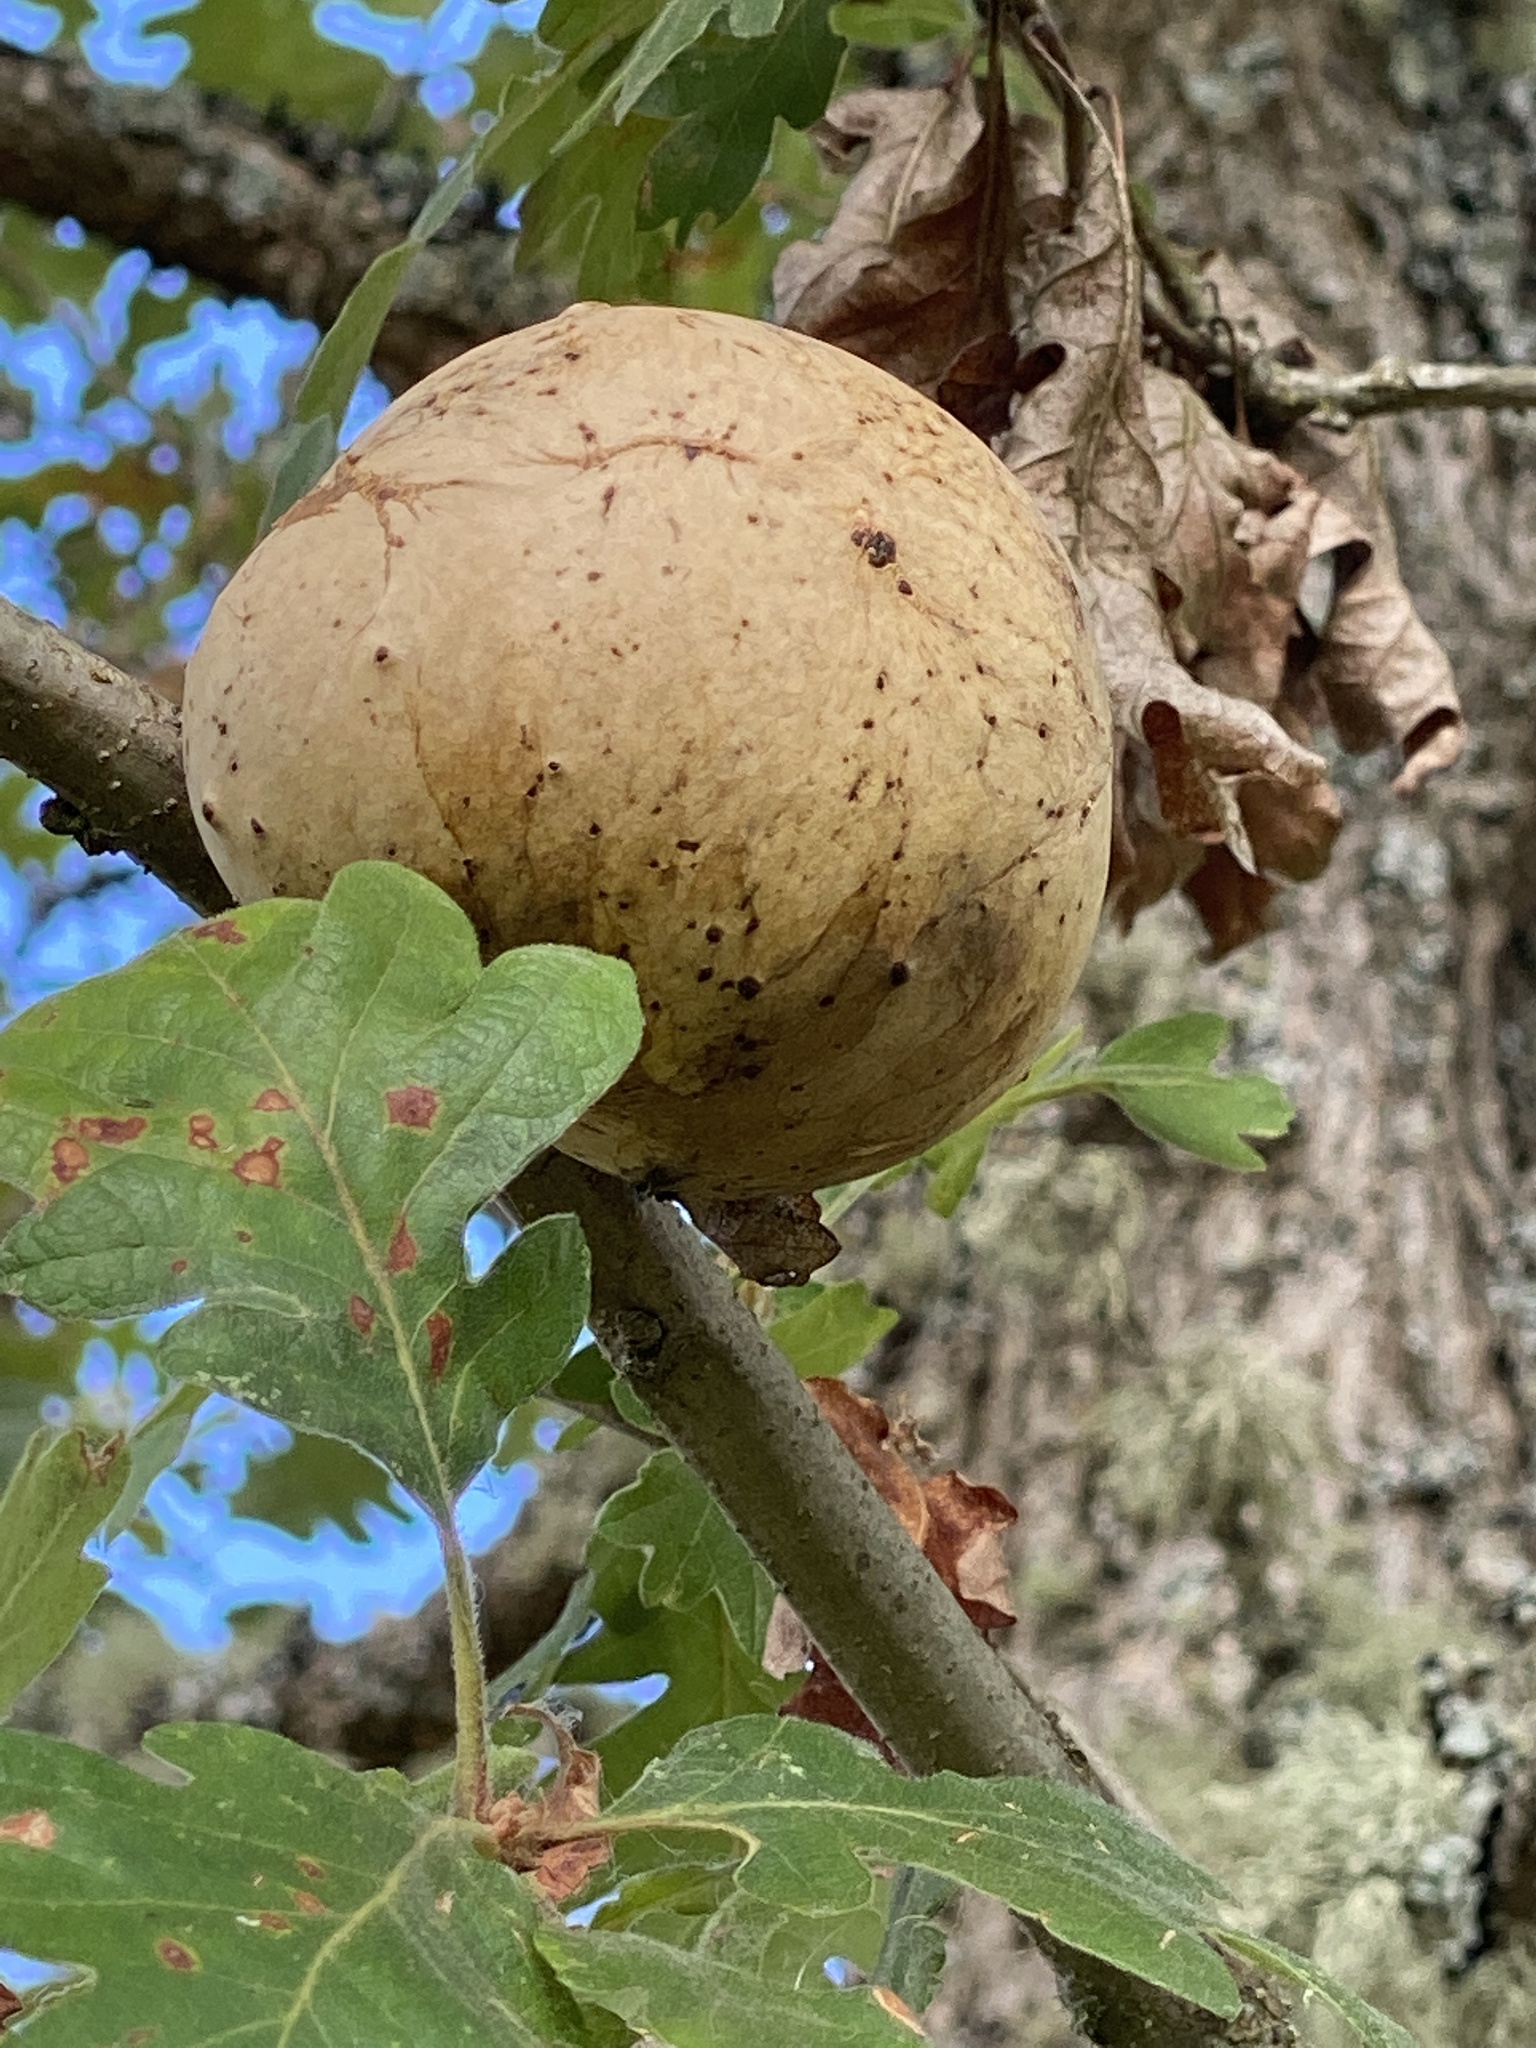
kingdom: Animalia
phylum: Arthropoda
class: Insecta
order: Hymenoptera
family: Cynipidae
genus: Andricus
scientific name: Andricus quercuscalifornicus
